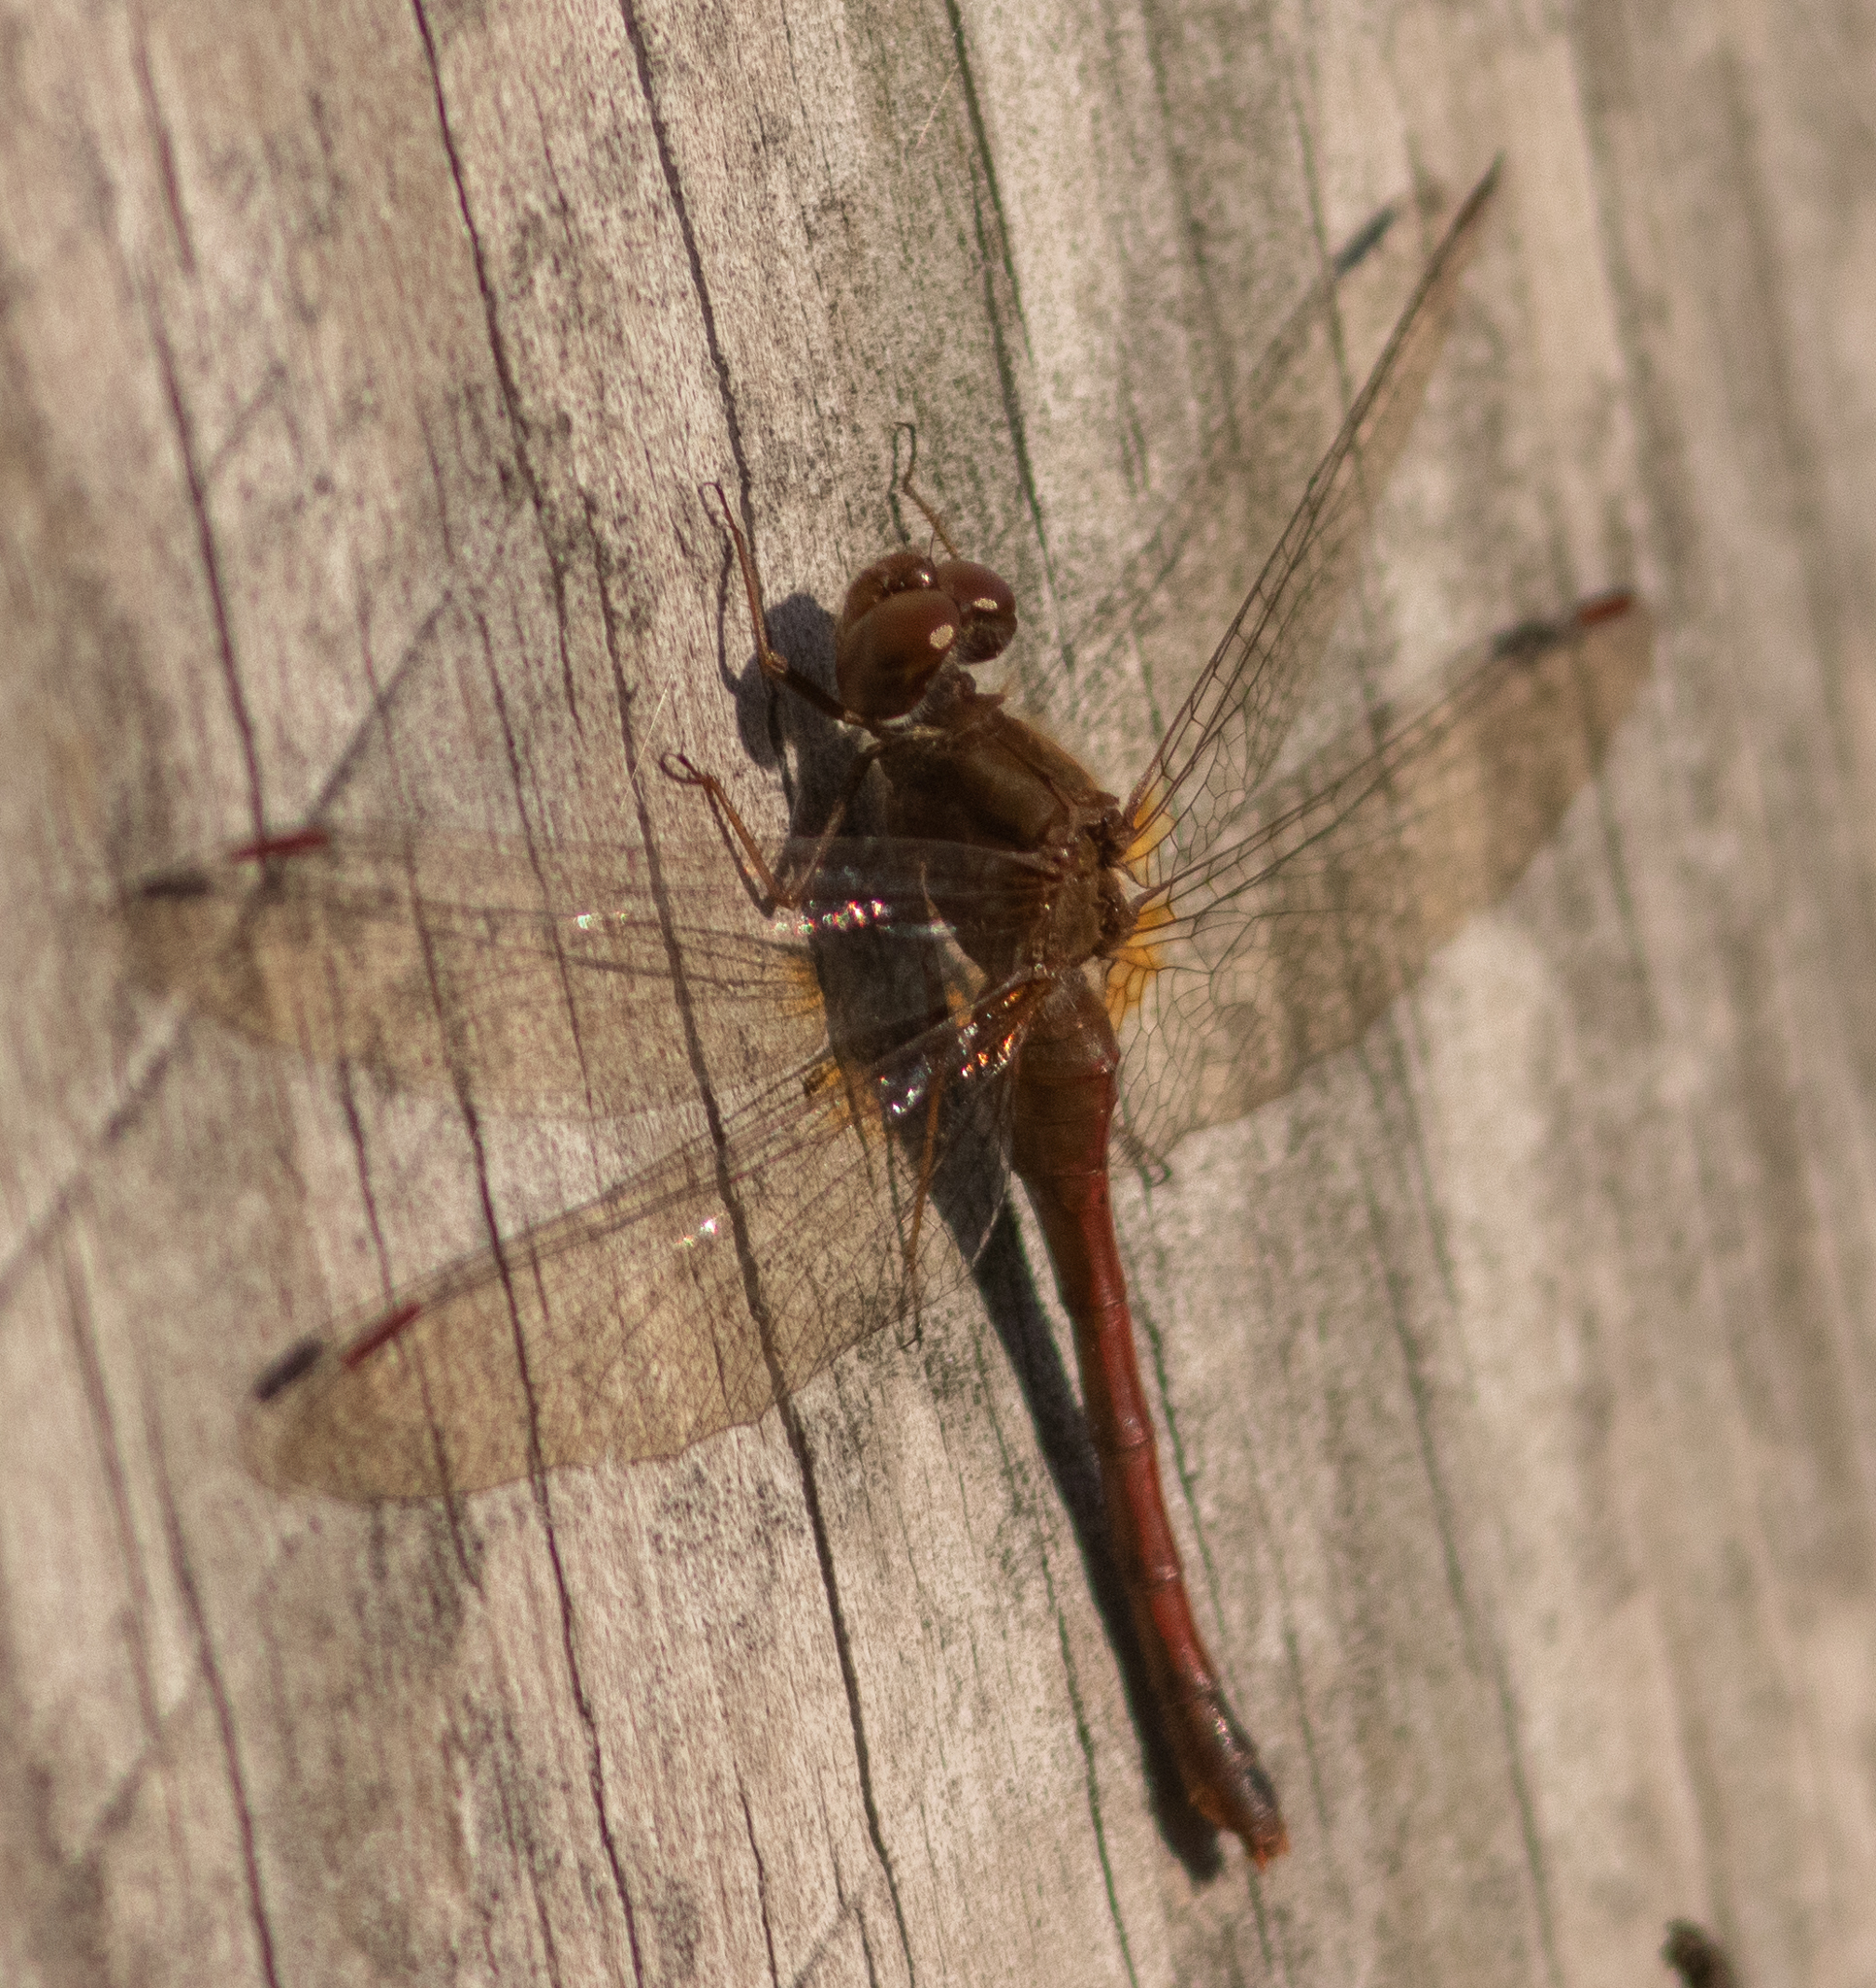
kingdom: Animalia
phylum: Arthropoda
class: Insecta
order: Odonata
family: Libellulidae
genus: Sympetrum
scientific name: Sympetrum vicinum
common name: Autumn meadowhawk
